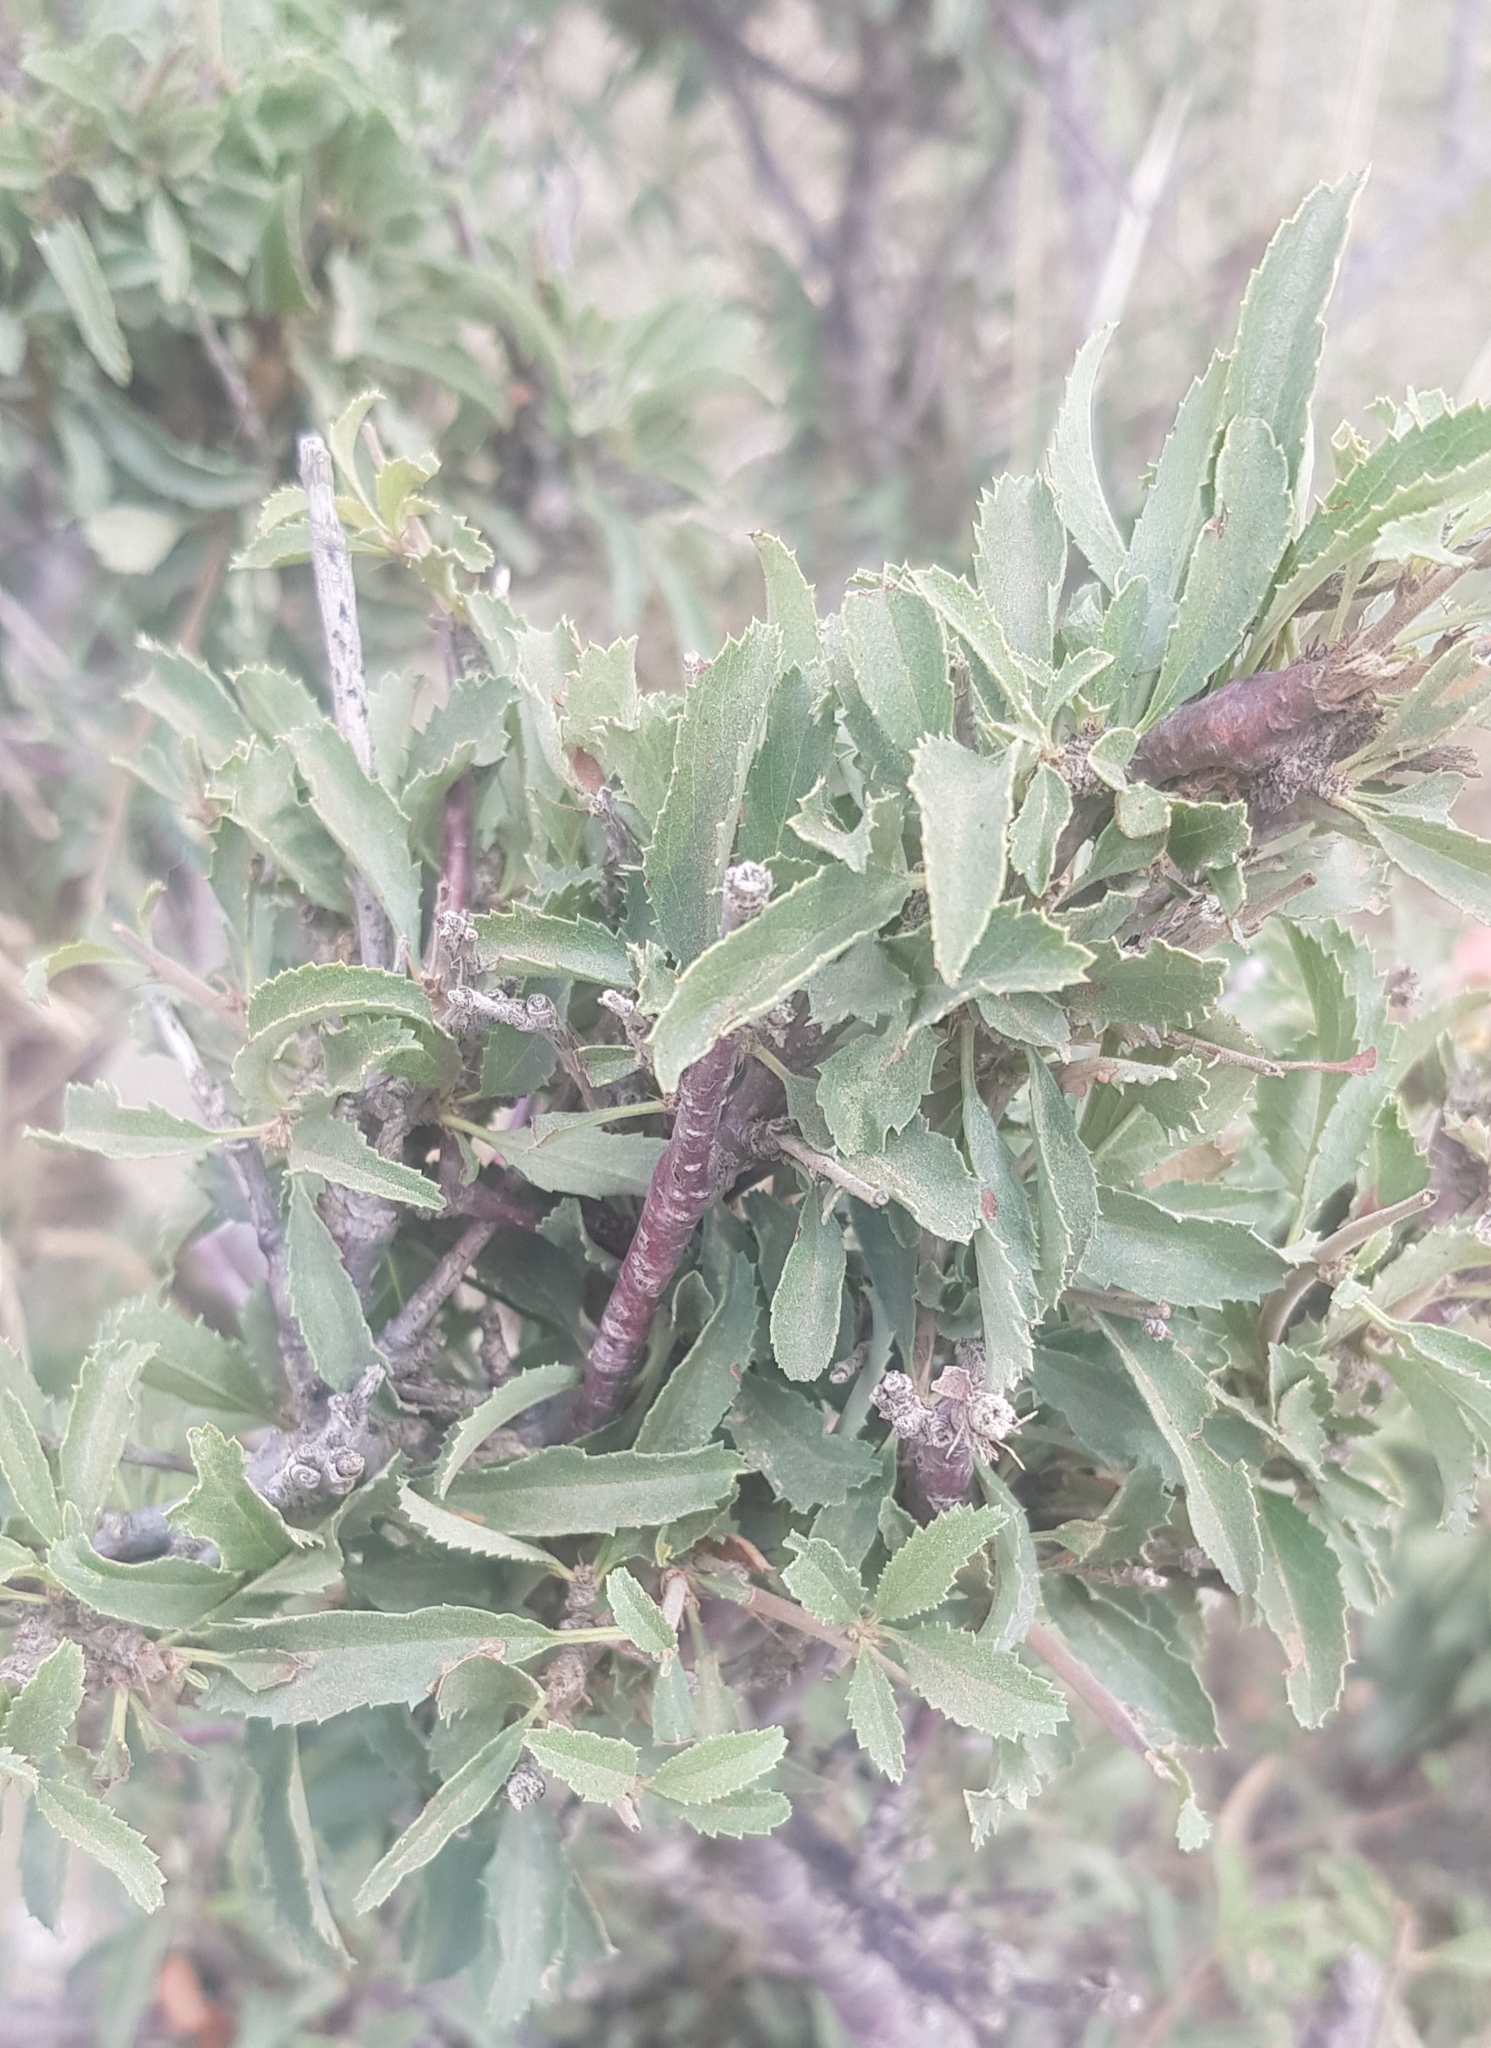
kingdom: Plantae
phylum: Tracheophyta
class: Magnoliopsida
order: Rosales
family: Rosaceae
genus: Prunus
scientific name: Prunus pedunculata
